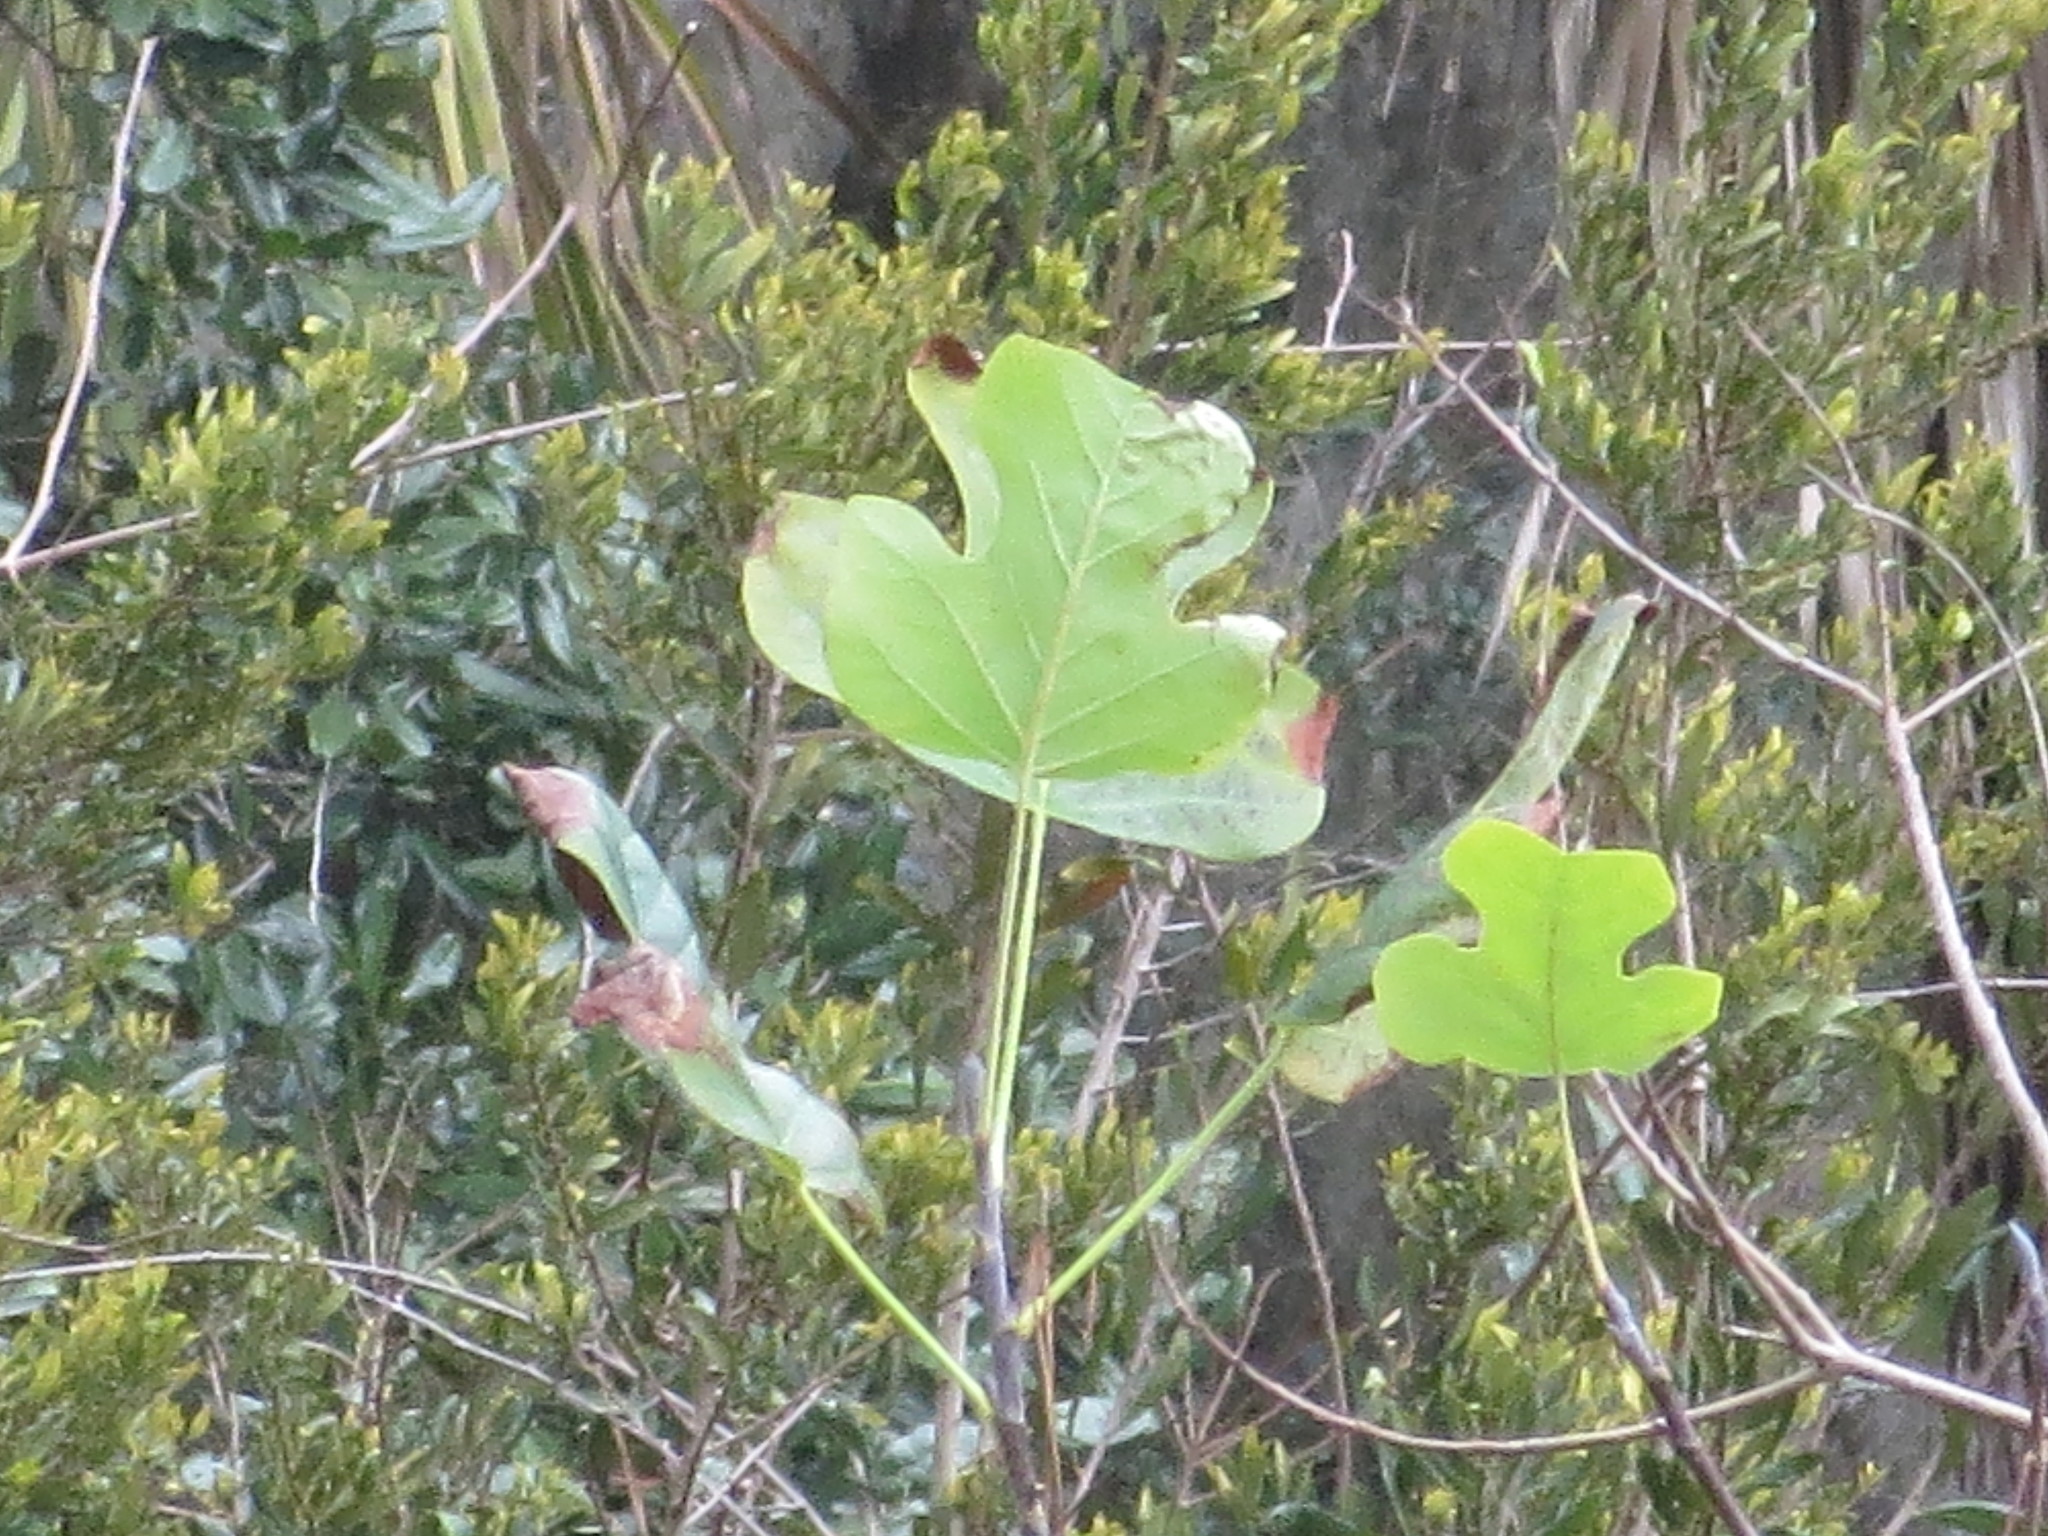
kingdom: Plantae
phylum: Tracheophyta
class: Magnoliopsida
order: Magnoliales
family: Magnoliaceae
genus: Liriodendron
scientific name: Liriodendron tulipifera
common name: Tulip tree
